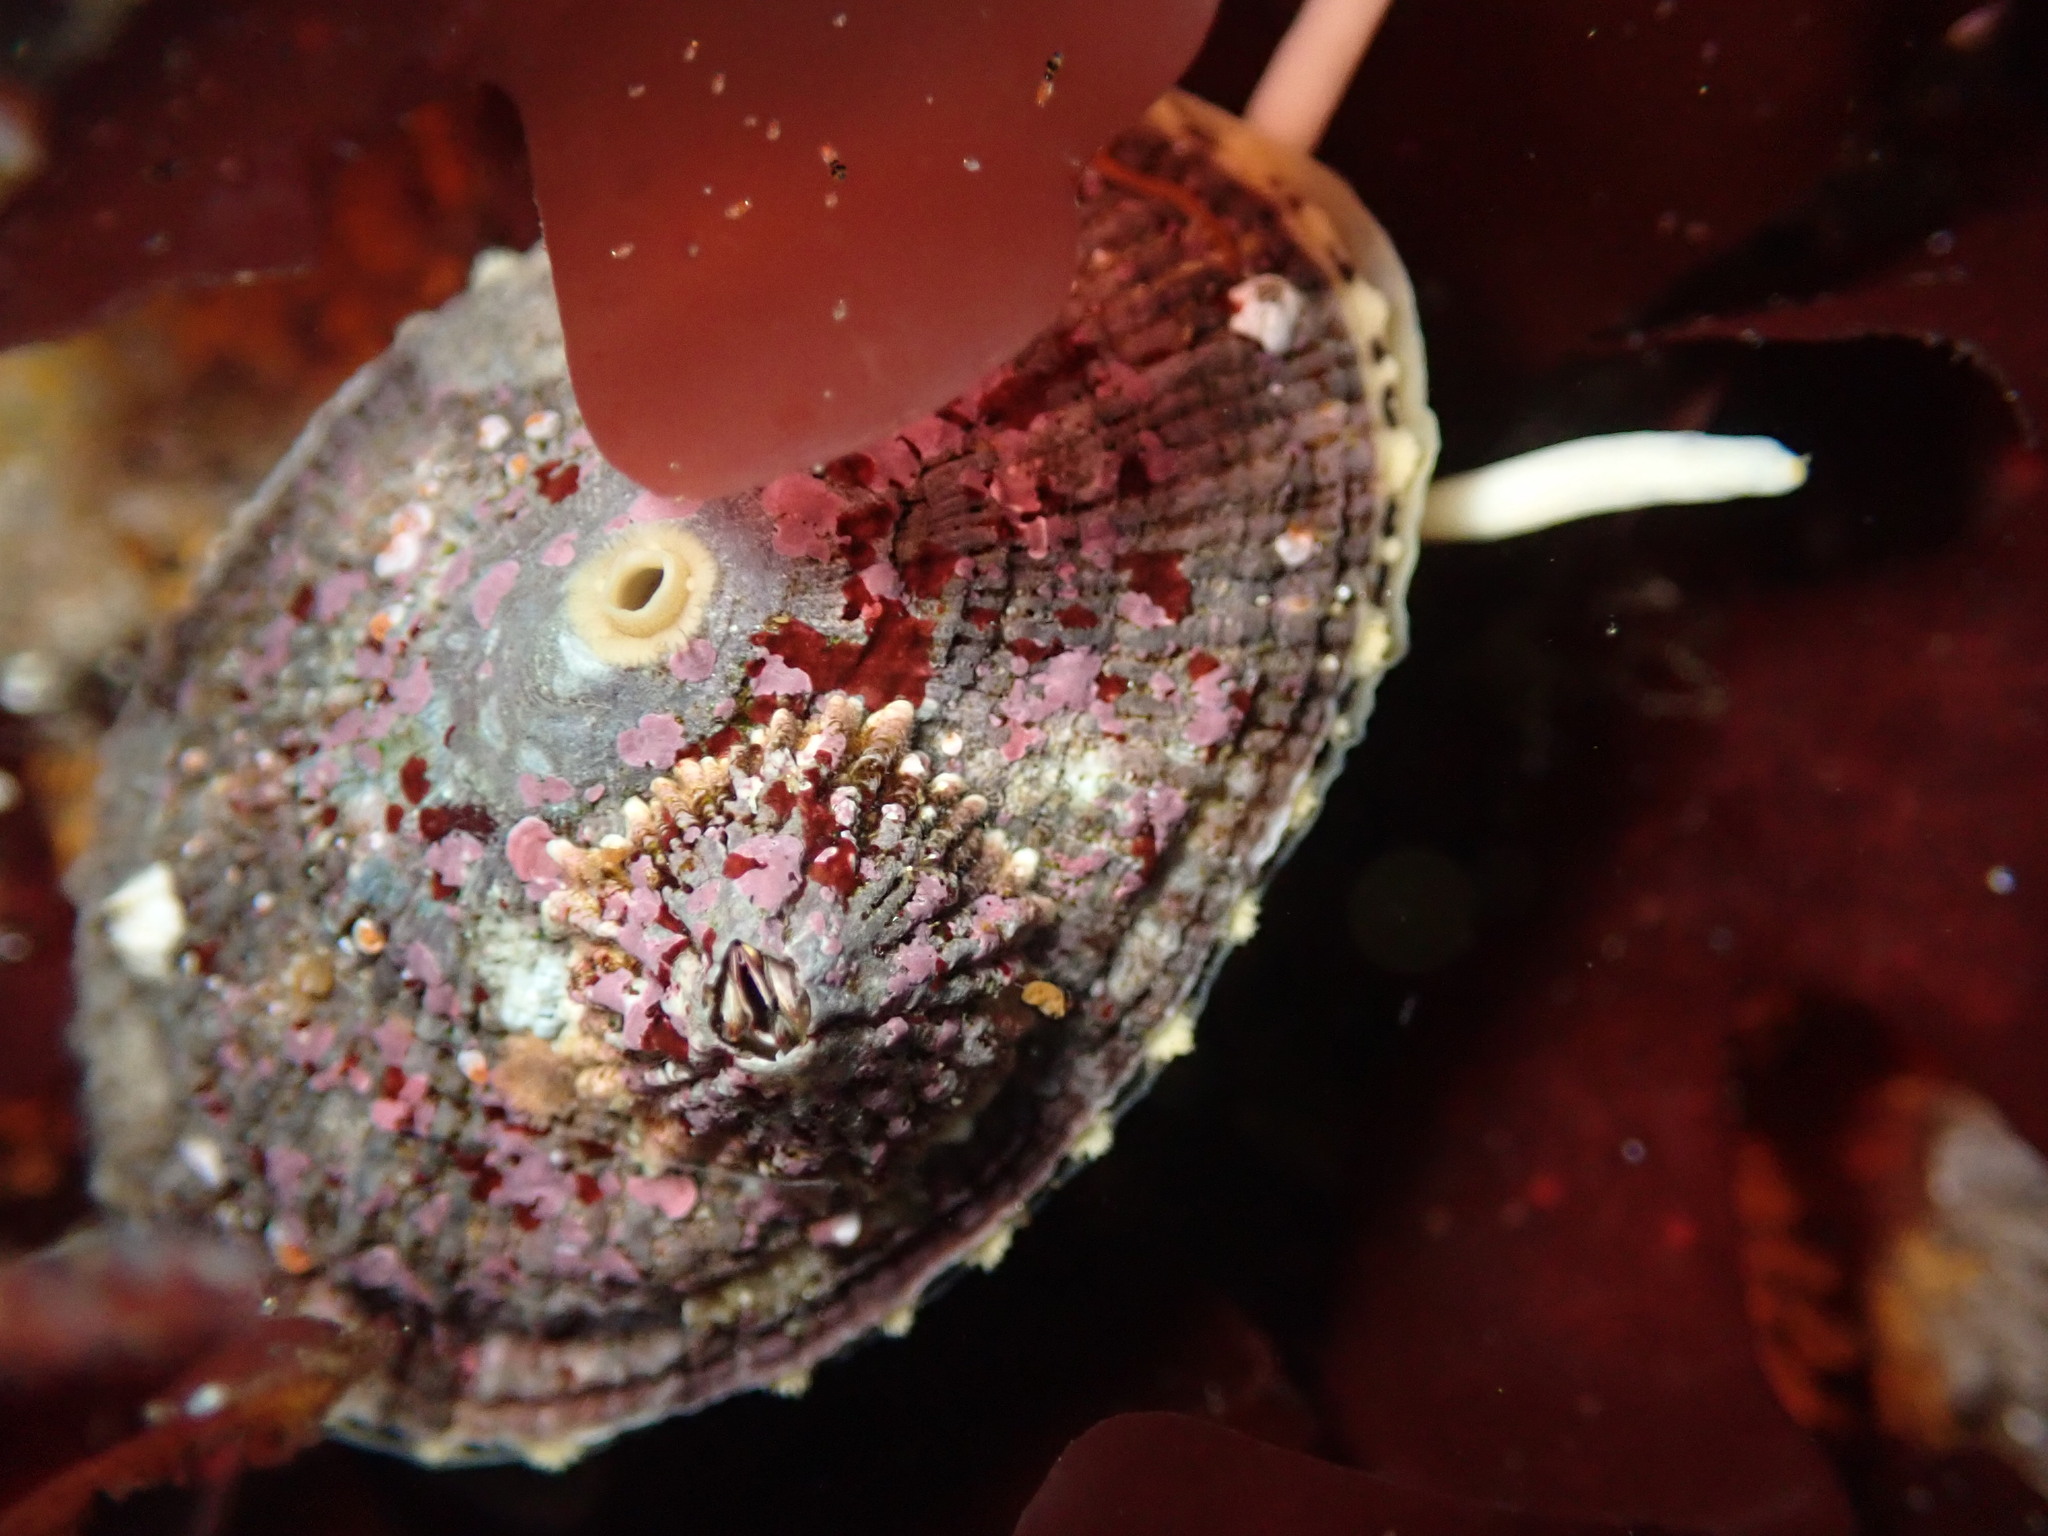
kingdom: Animalia
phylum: Mollusca
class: Gastropoda
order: Lepetellida
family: Fissurellidae
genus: Diodora
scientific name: Diodora aspera
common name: Rough keyhole limpet
